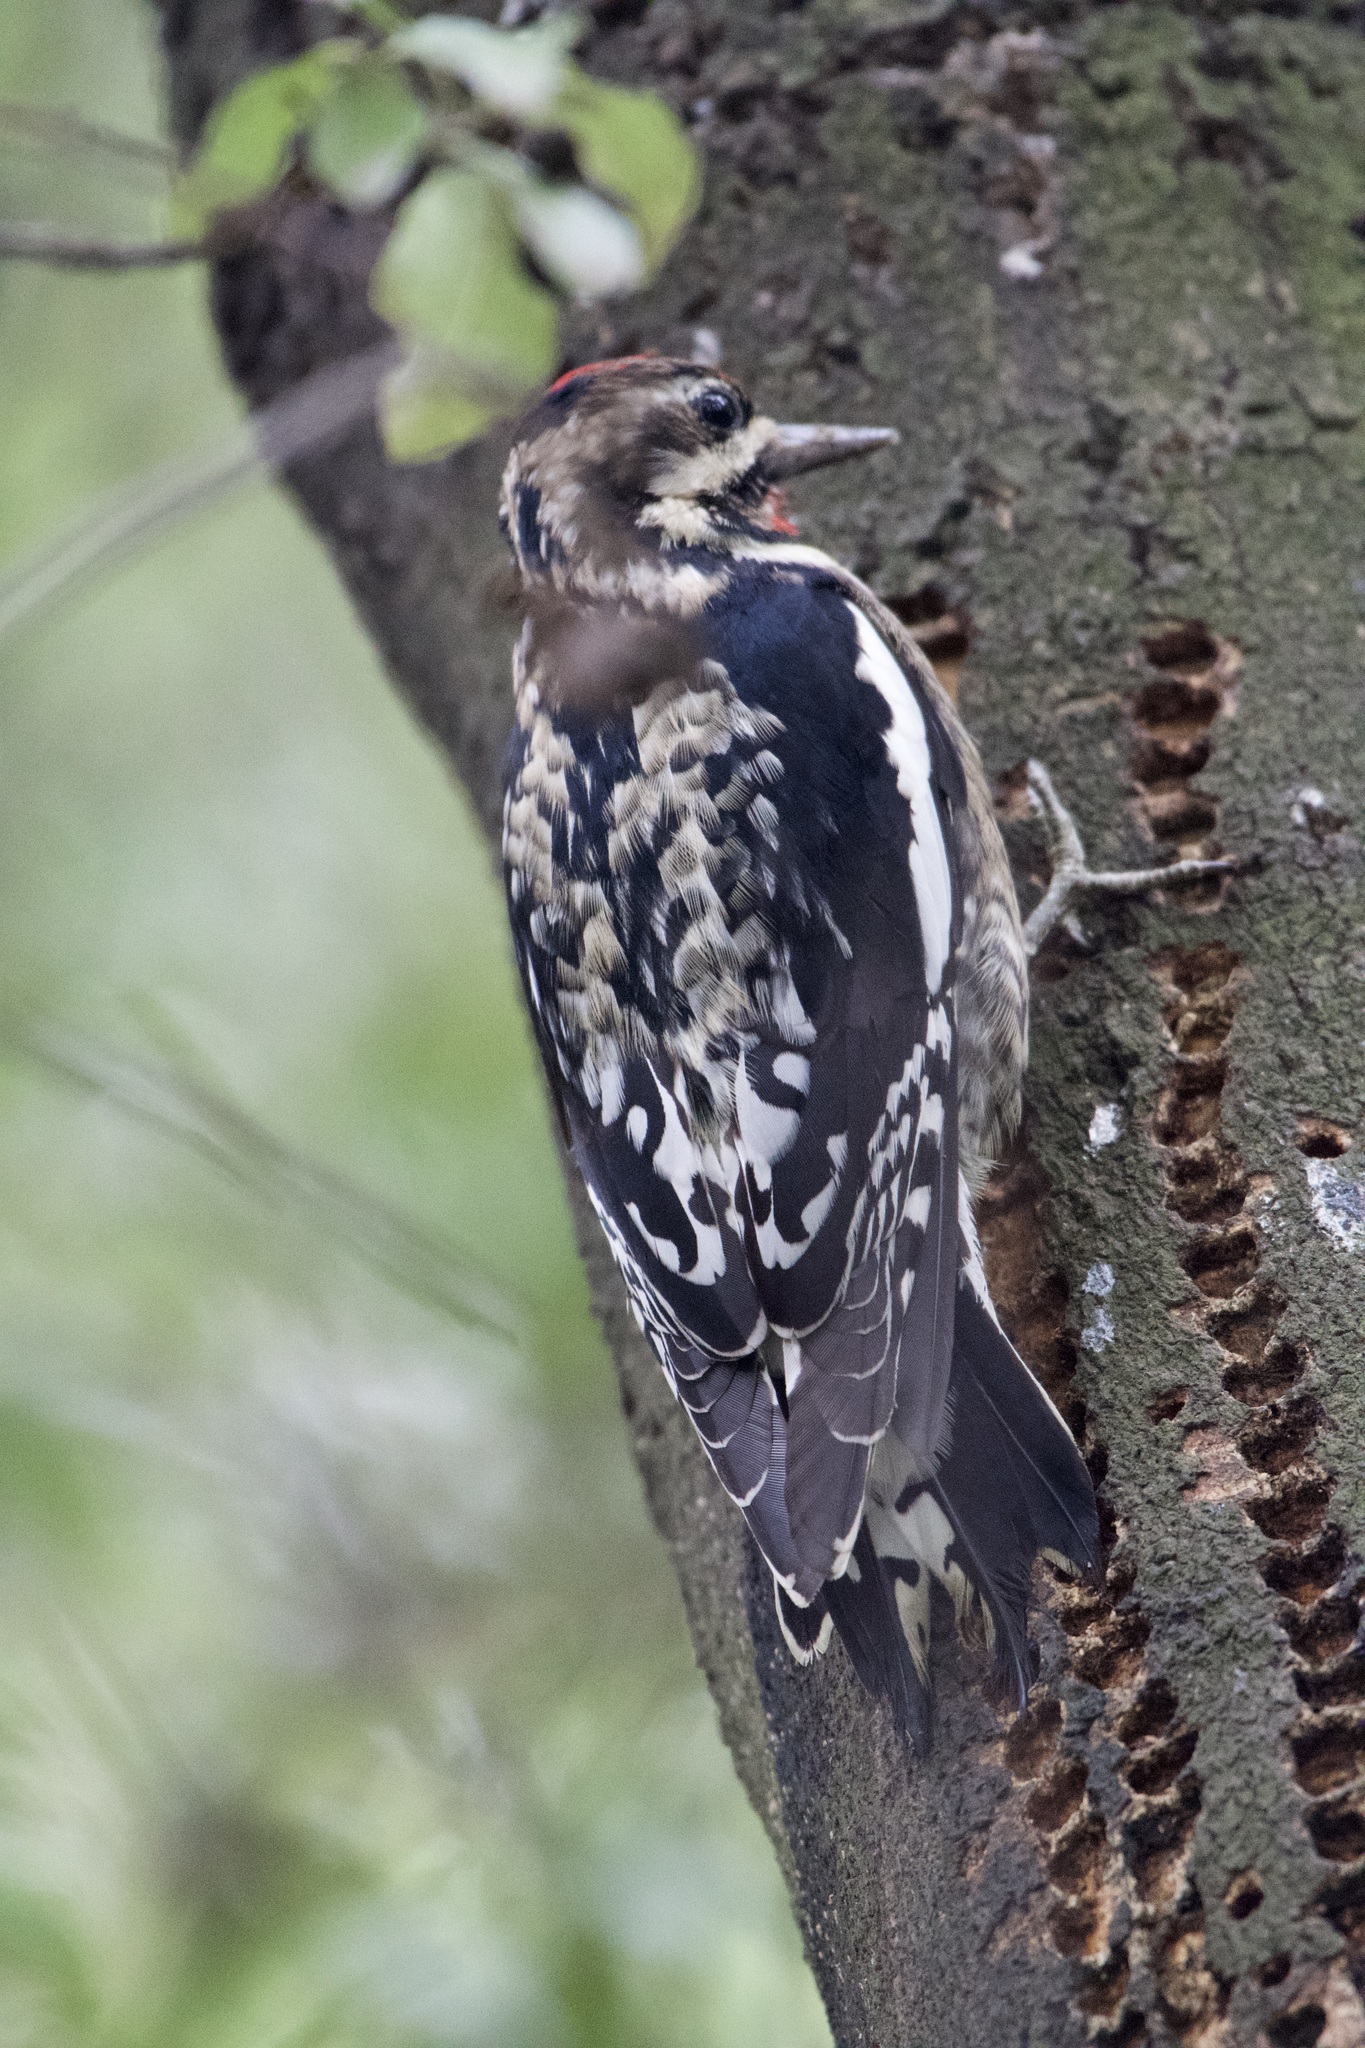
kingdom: Animalia
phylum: Chordata
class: Aves
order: Piciformes
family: Picidae
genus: Sphyrapicus
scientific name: Sphyrapicus varius
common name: Yellow-bellied sapsucker
